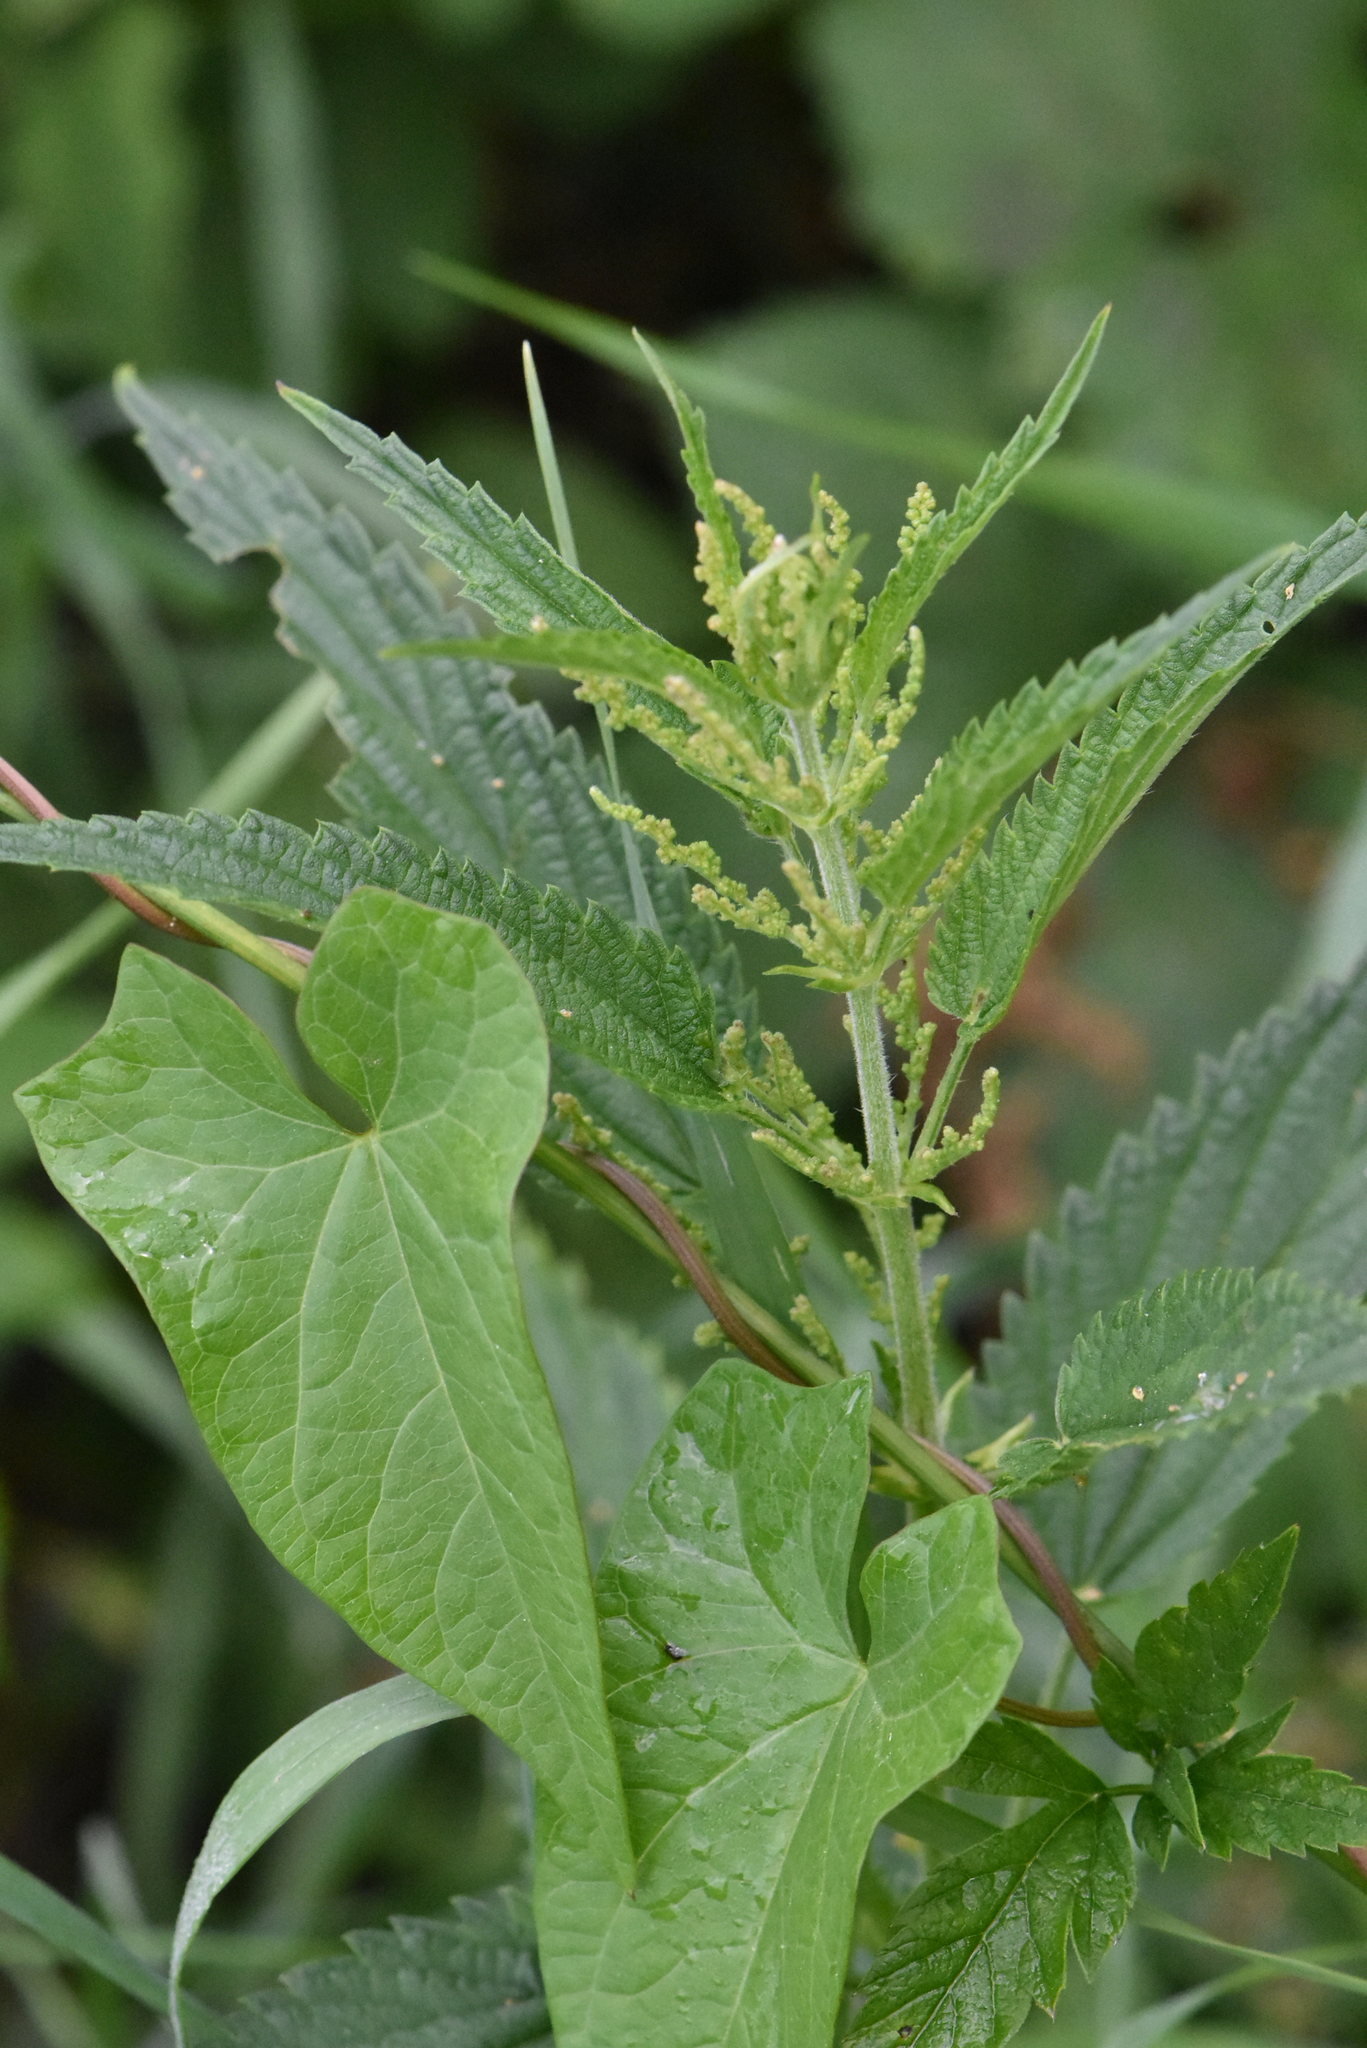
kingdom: Plantae
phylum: Tracheophyta
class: Magnoliopsida
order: Rosales
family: Urticaceae
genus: Urtica
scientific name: Urtica dioica
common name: Common nettle
